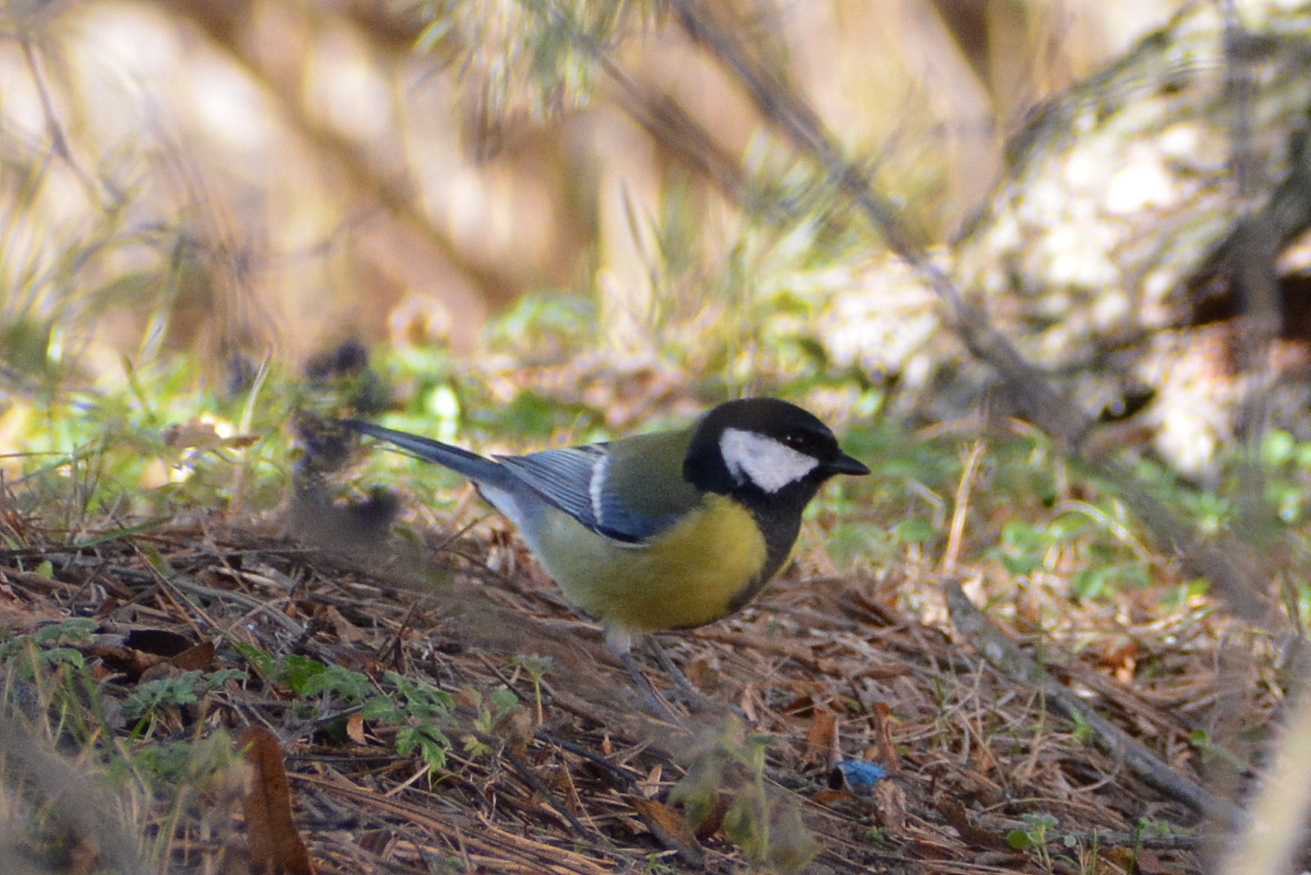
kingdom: Animalia
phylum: Chordata
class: Aves
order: Passeriformes
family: Paridae
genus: Parus
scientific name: Parus major
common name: Great tit
